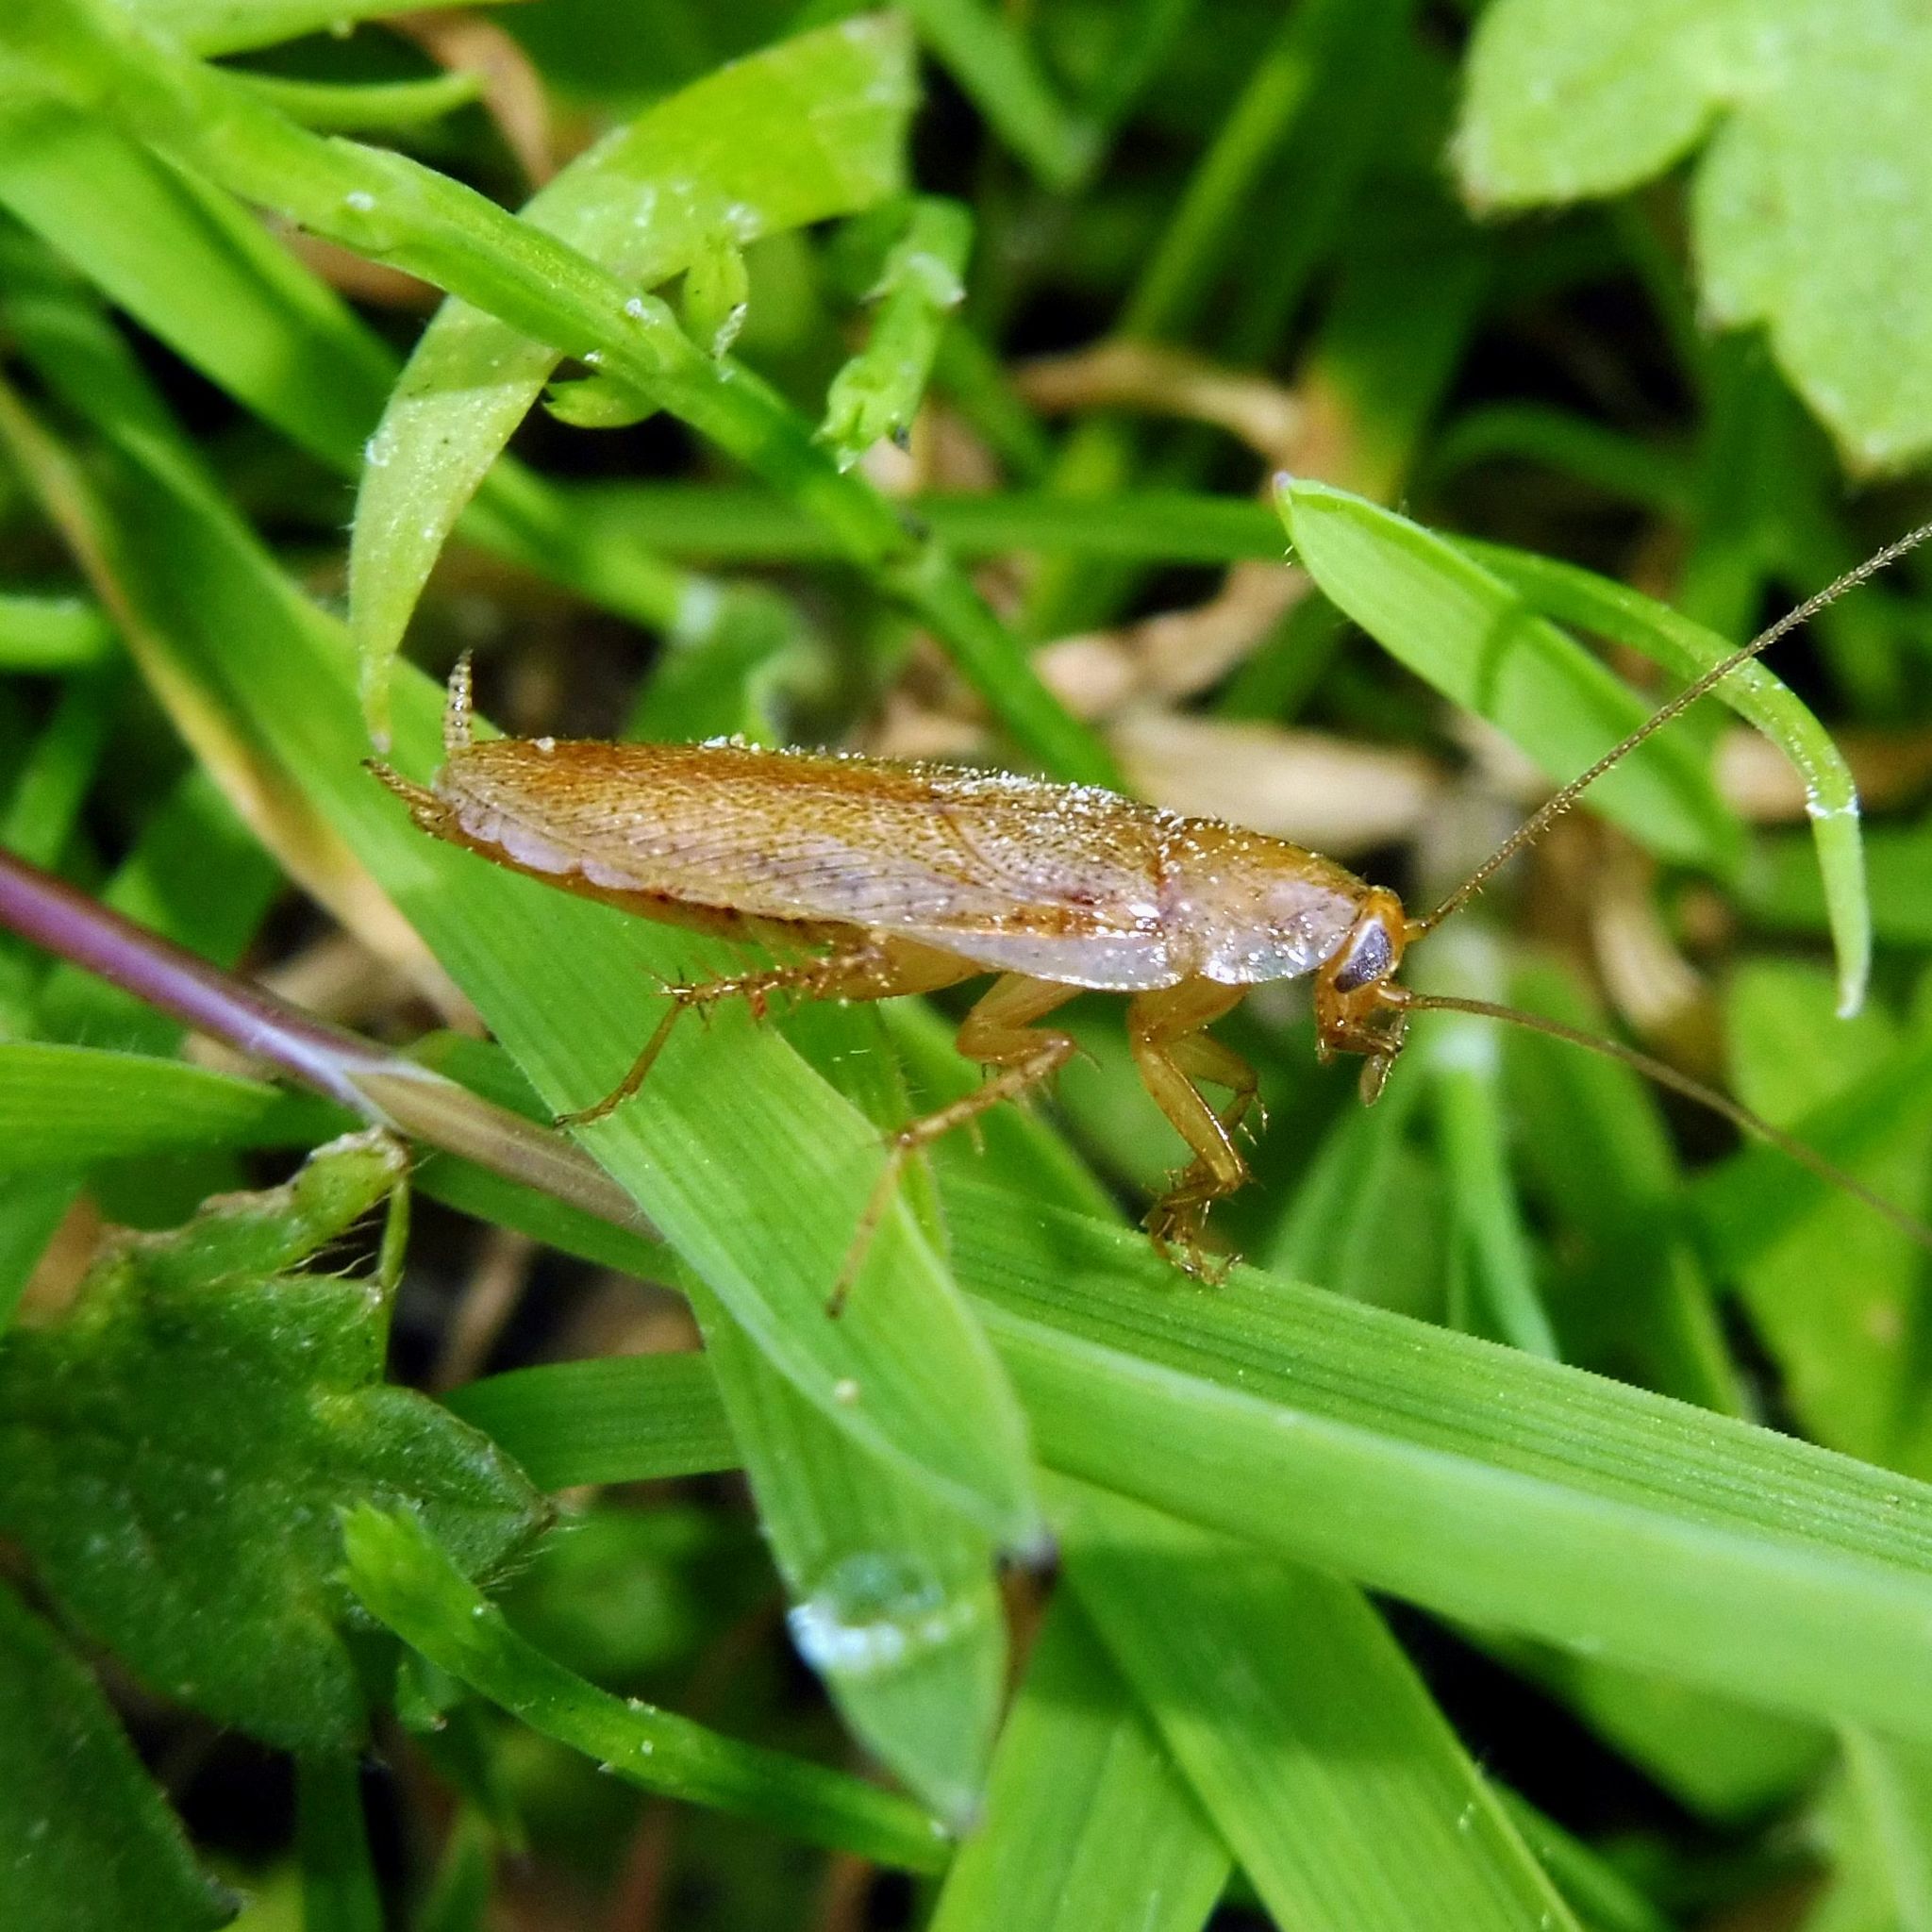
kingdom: Animalia
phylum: Arthropoda
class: Insecta
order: Blattodea
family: Ectobiidae
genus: Ectobius
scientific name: Ectobius pallidus
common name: Tawny cockroach
